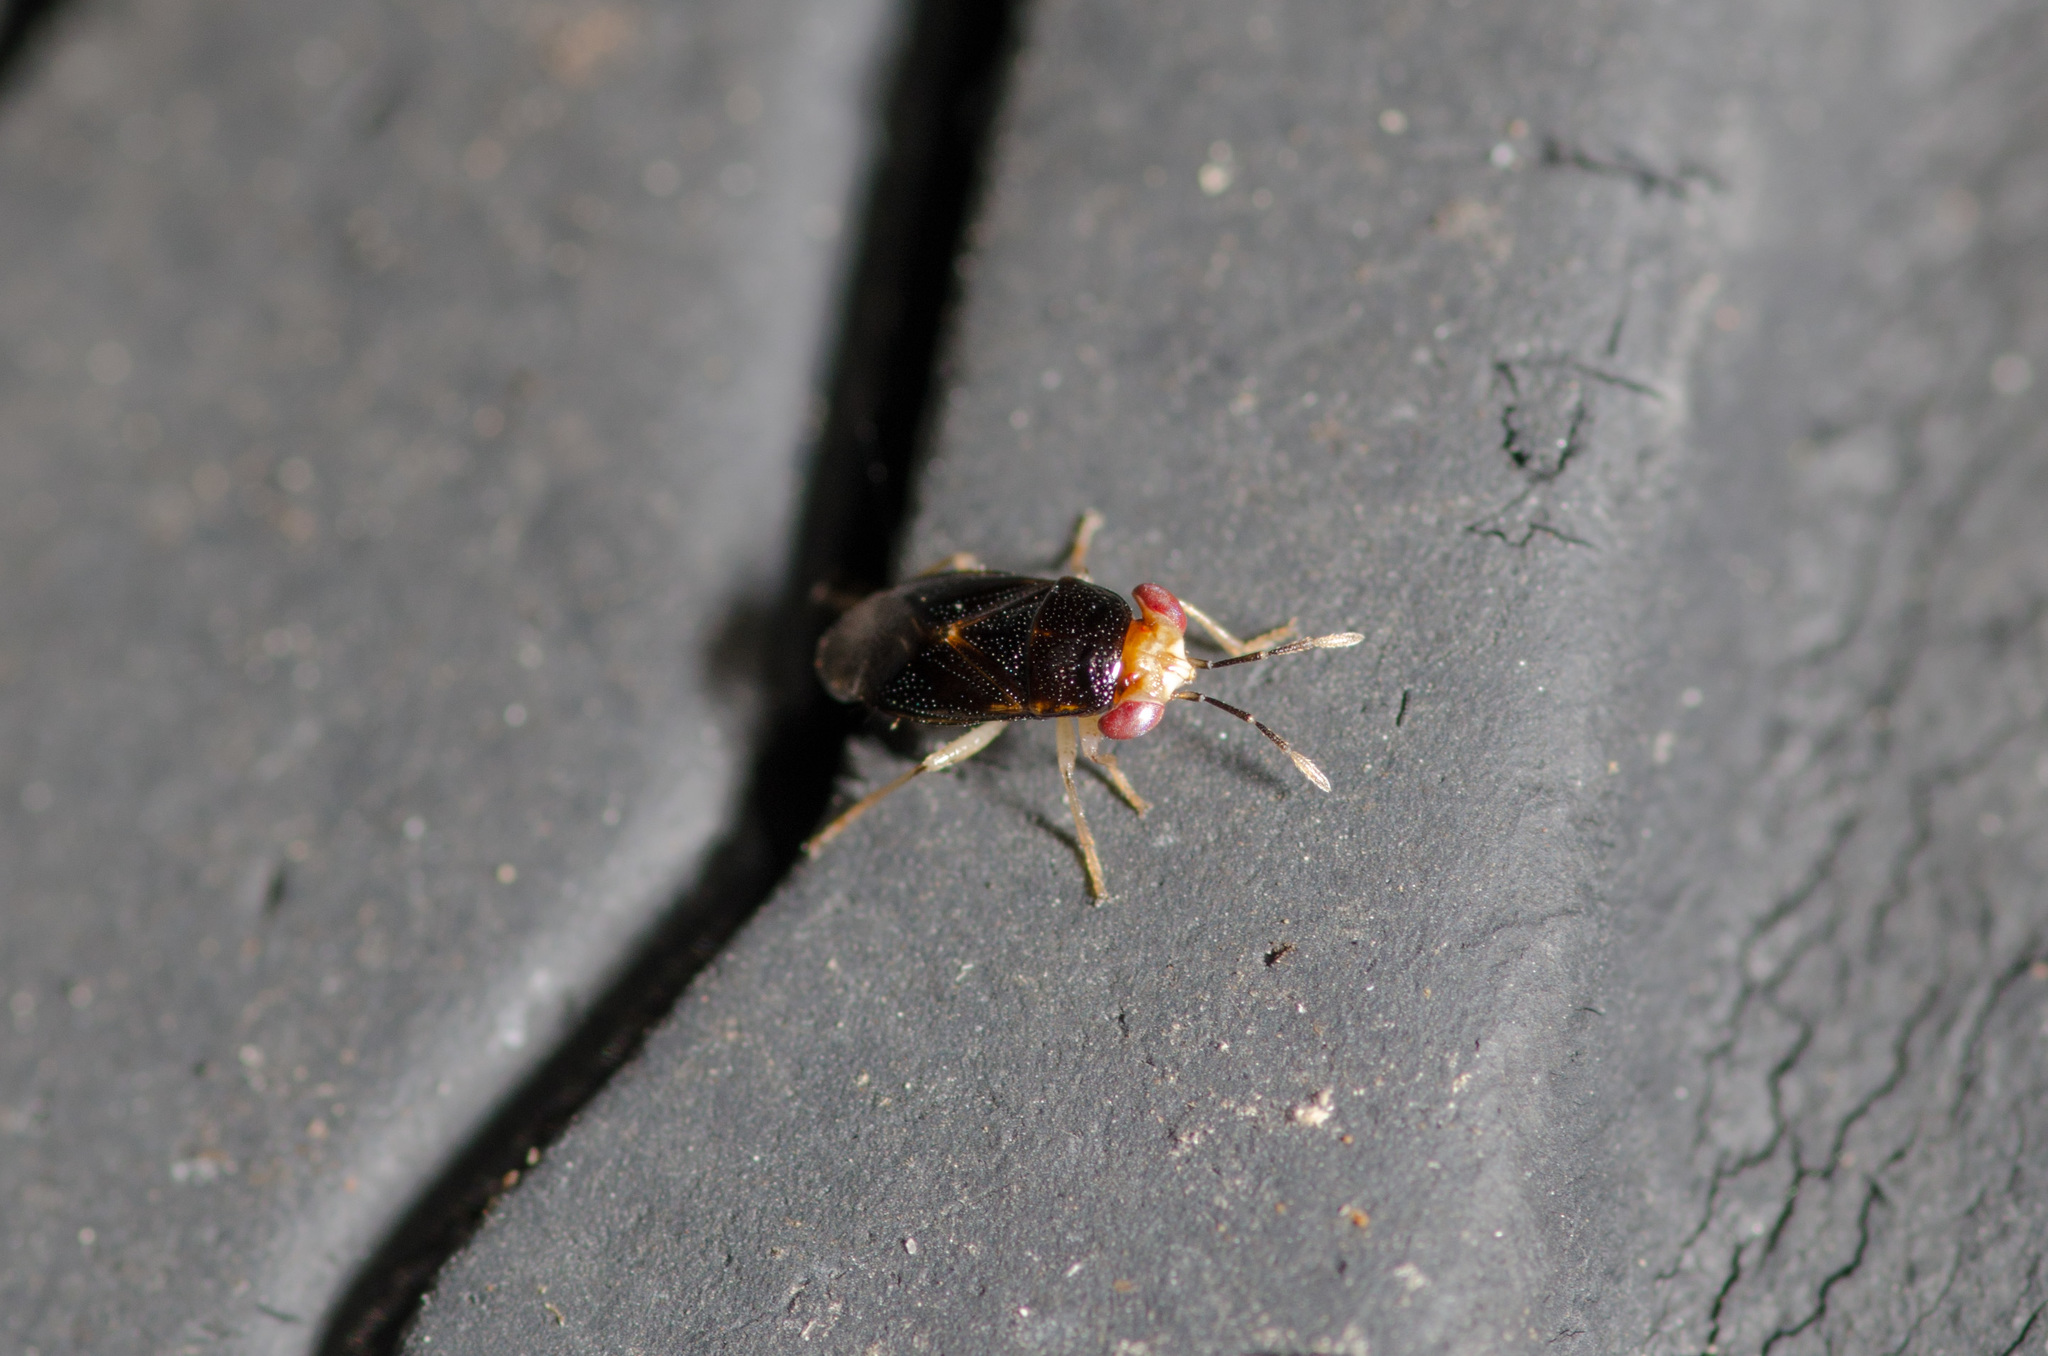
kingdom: Animalia
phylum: Arthropoda
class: Insecta
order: Hemiptera
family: Geocoridae
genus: Geocoris
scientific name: Geocoris scudderi
